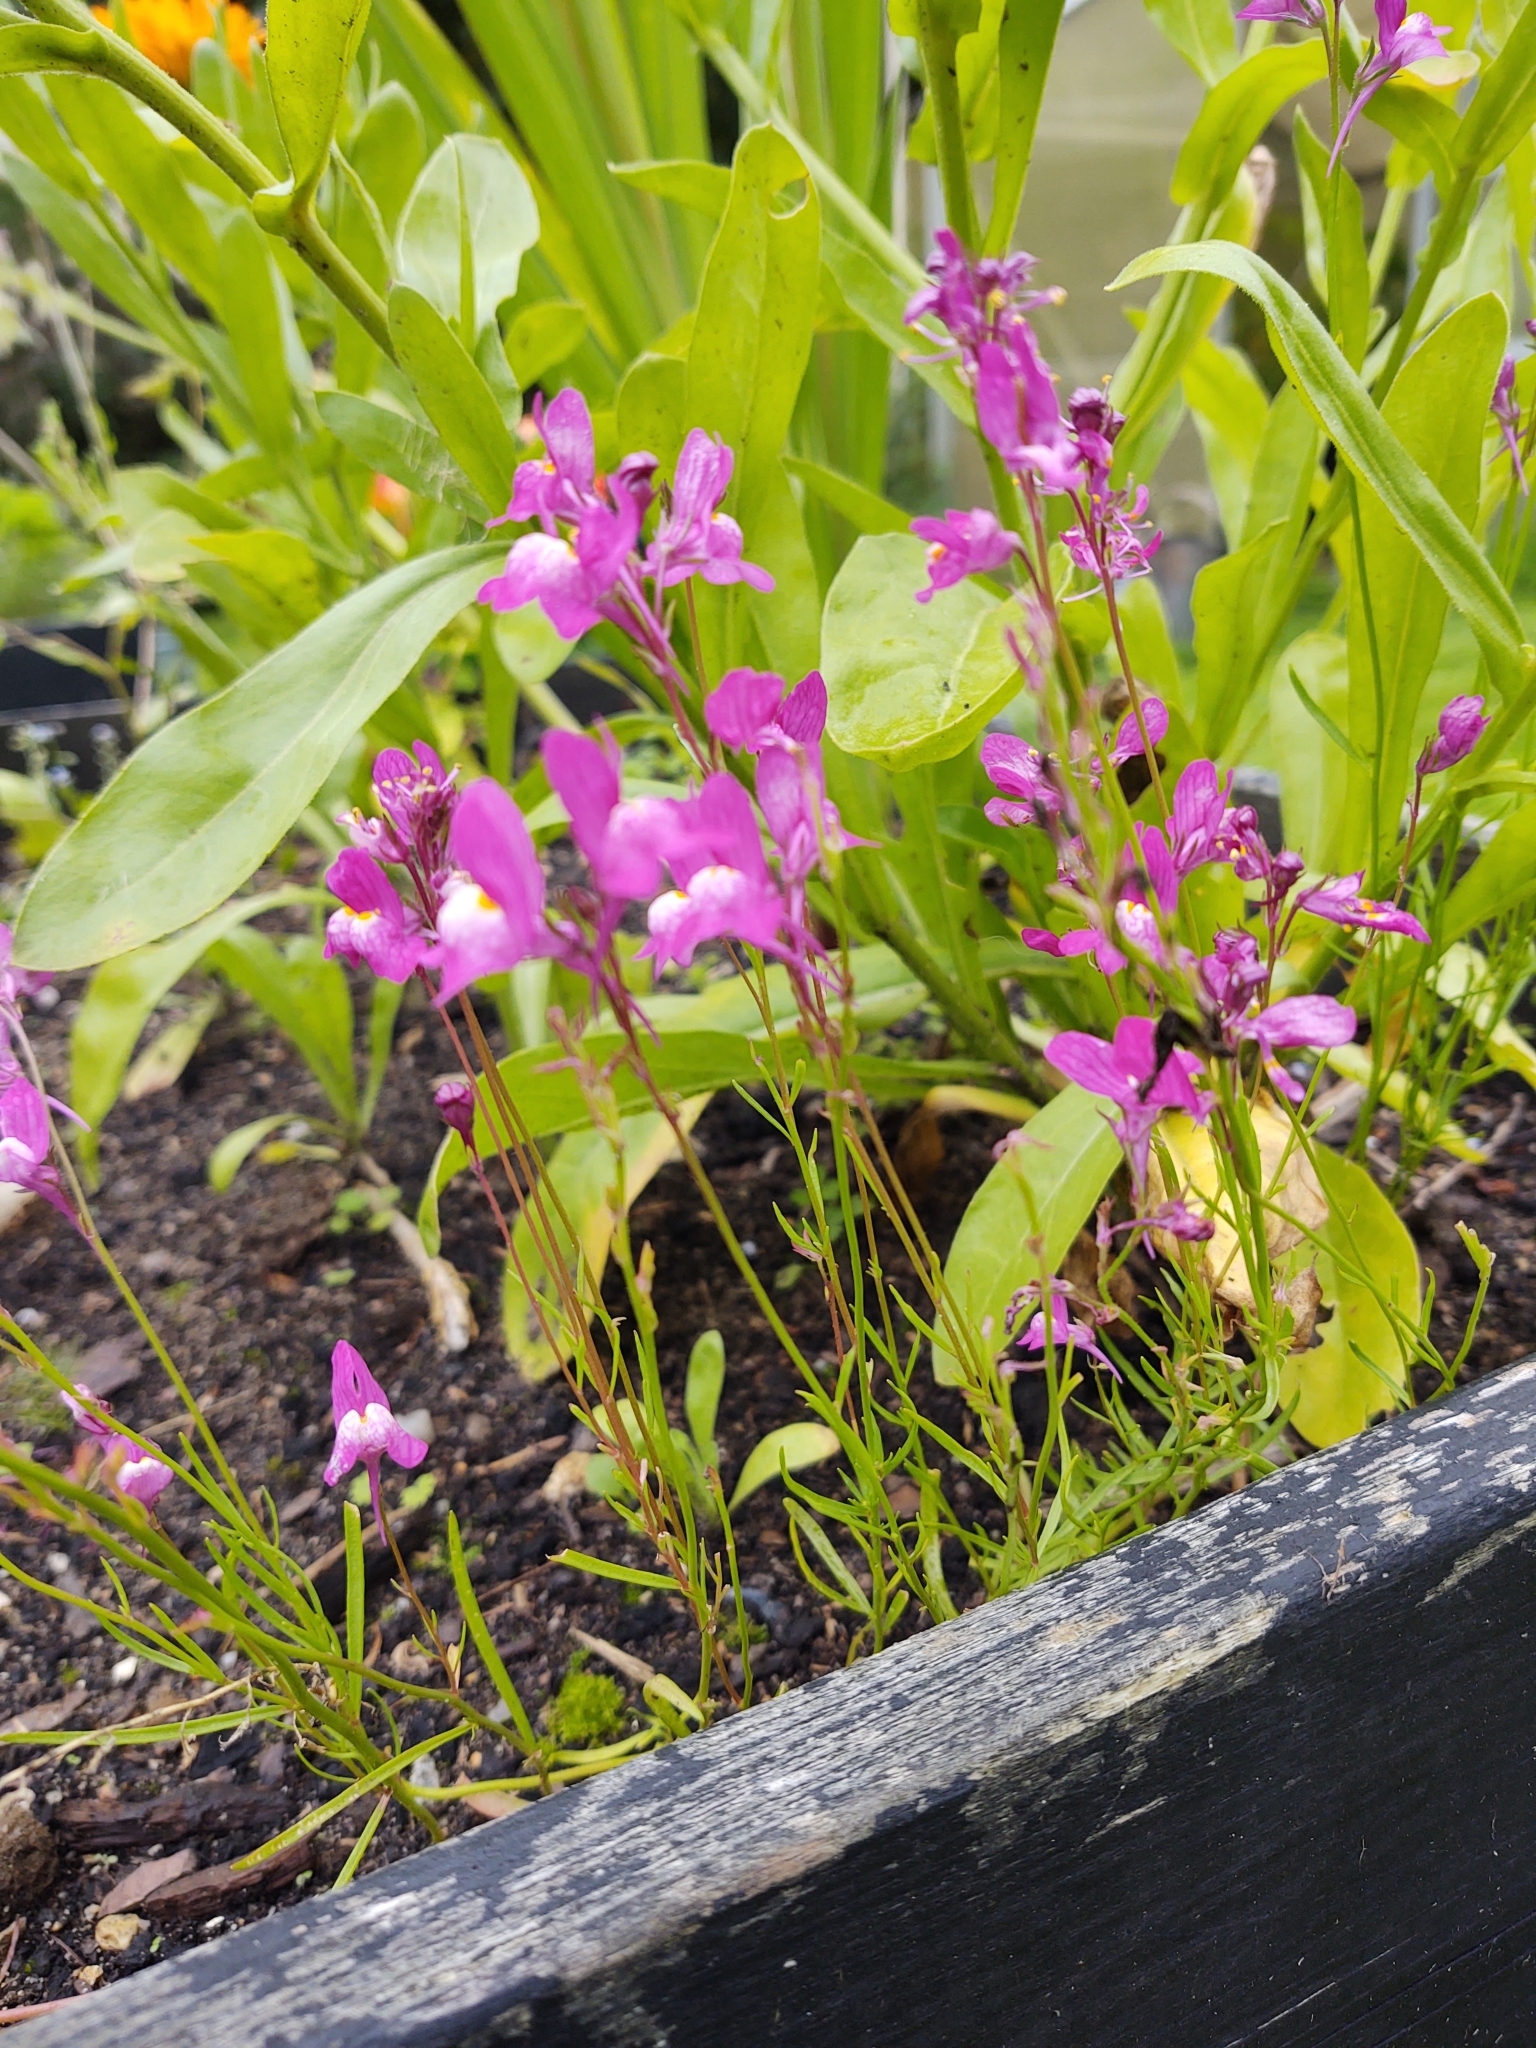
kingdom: Plantae
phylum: Tracheophyta
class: Magnoliopsida
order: Lamiales
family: Plantaginaceae
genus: Linaria
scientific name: Linaria maroccana
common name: Moroccan toadflax
